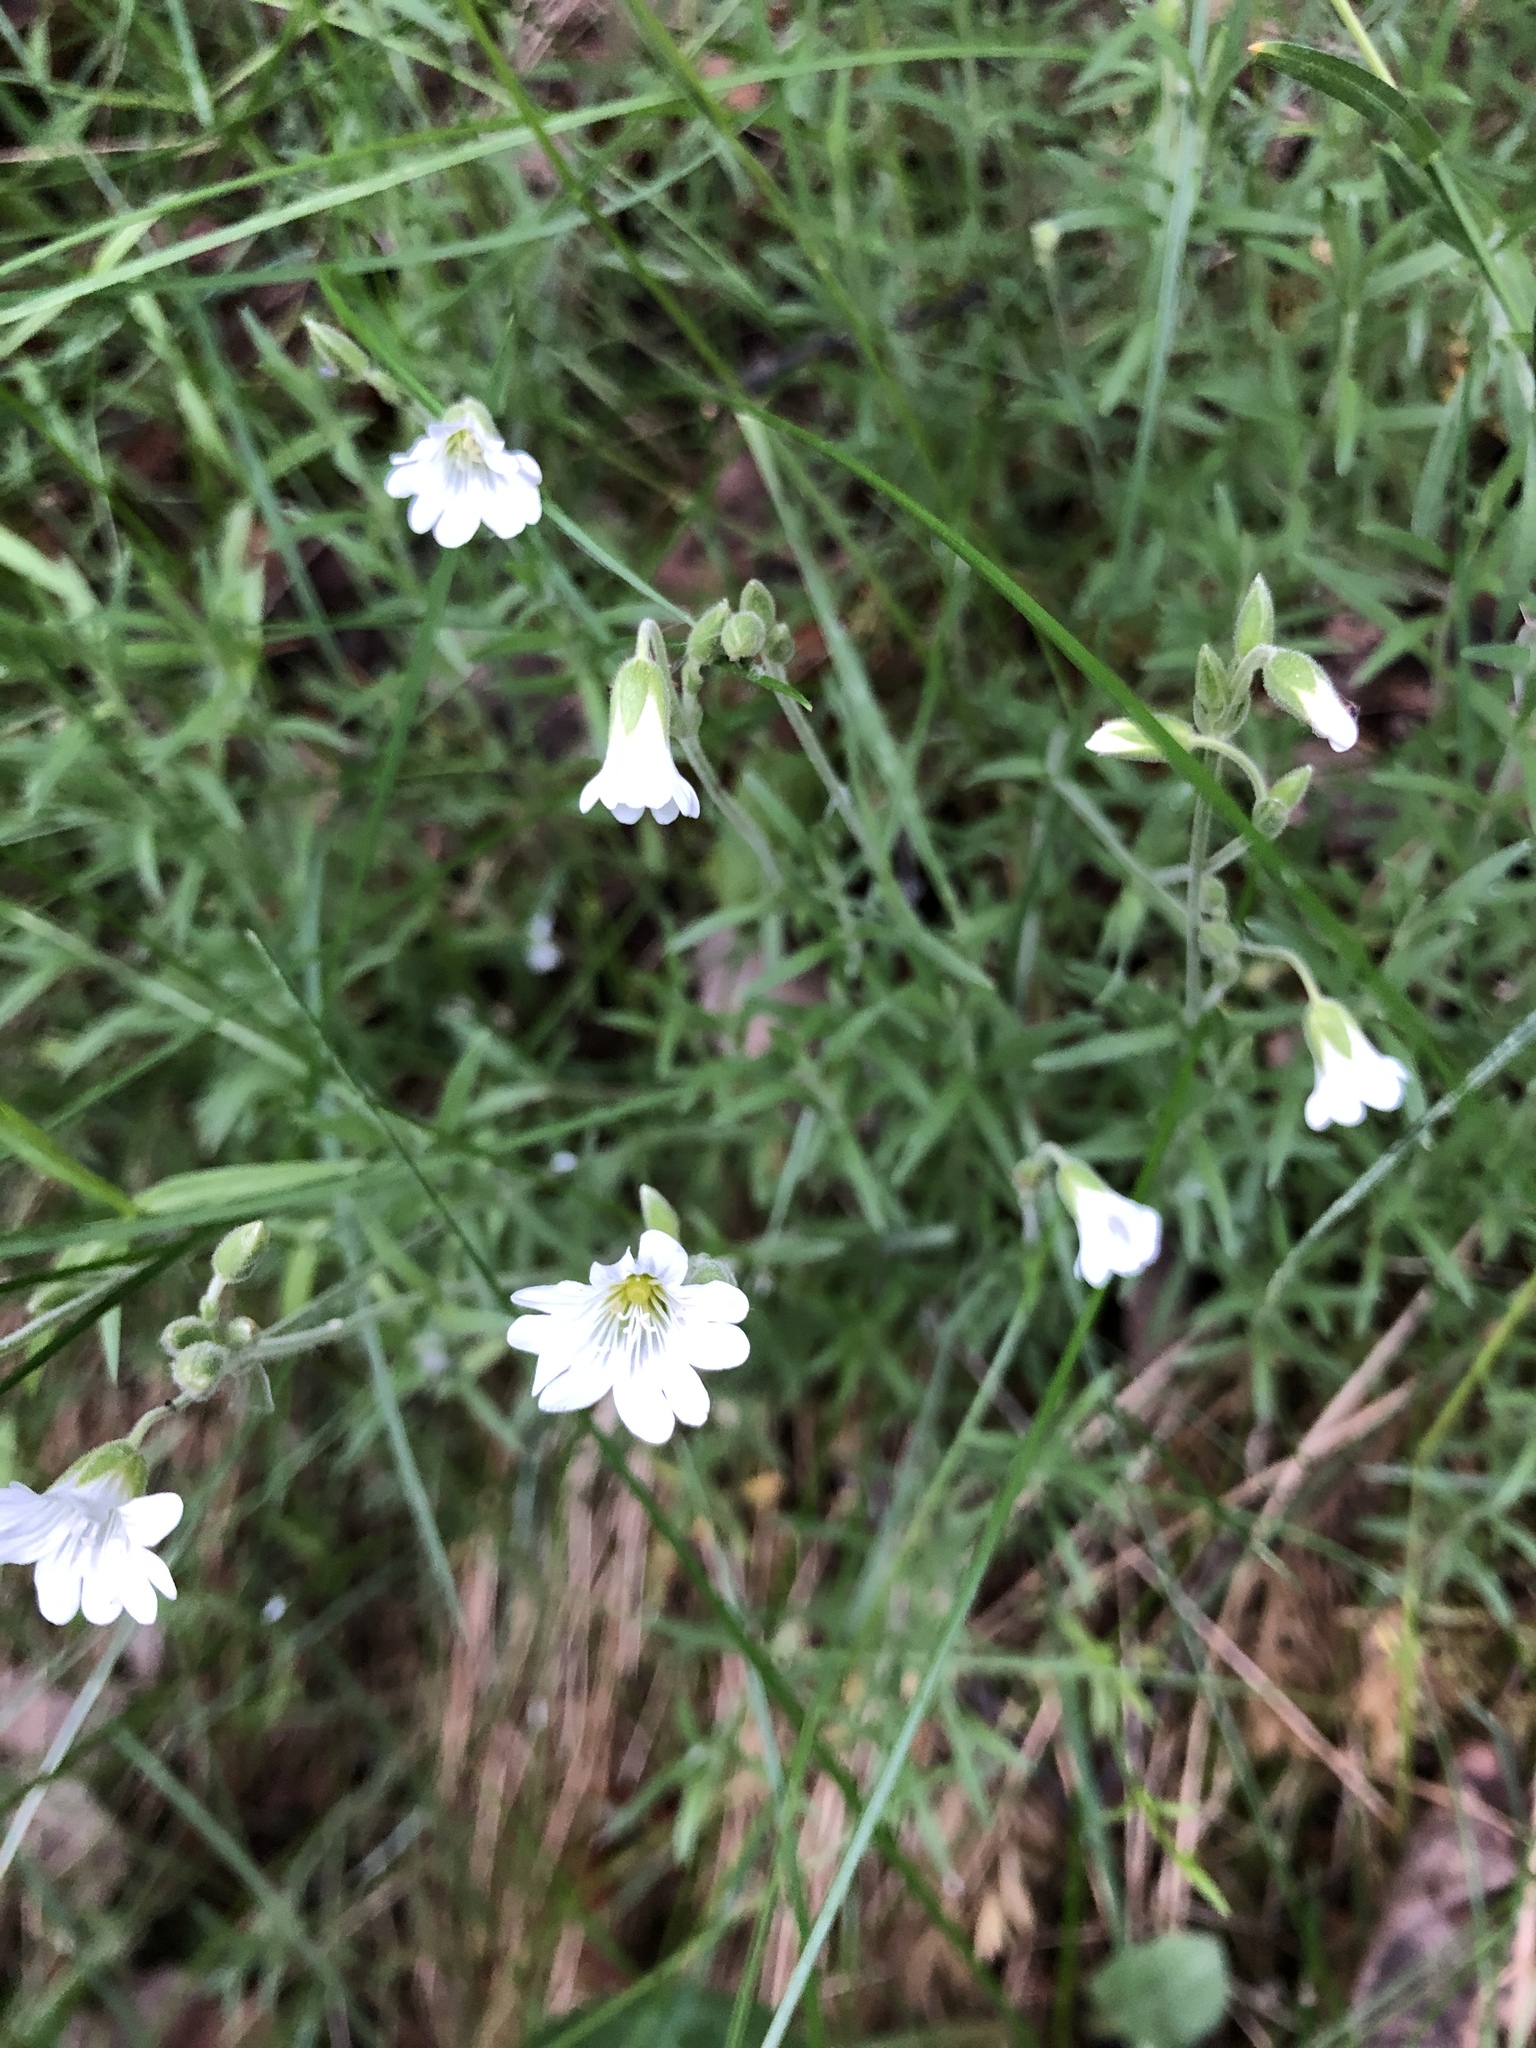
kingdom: Plantae
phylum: Tracheophyta
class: Magnoliopsida
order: Caryophyllales
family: Caryophyllaceae
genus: Cerastium
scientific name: Cerastium arvense
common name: Field mouse-ear
